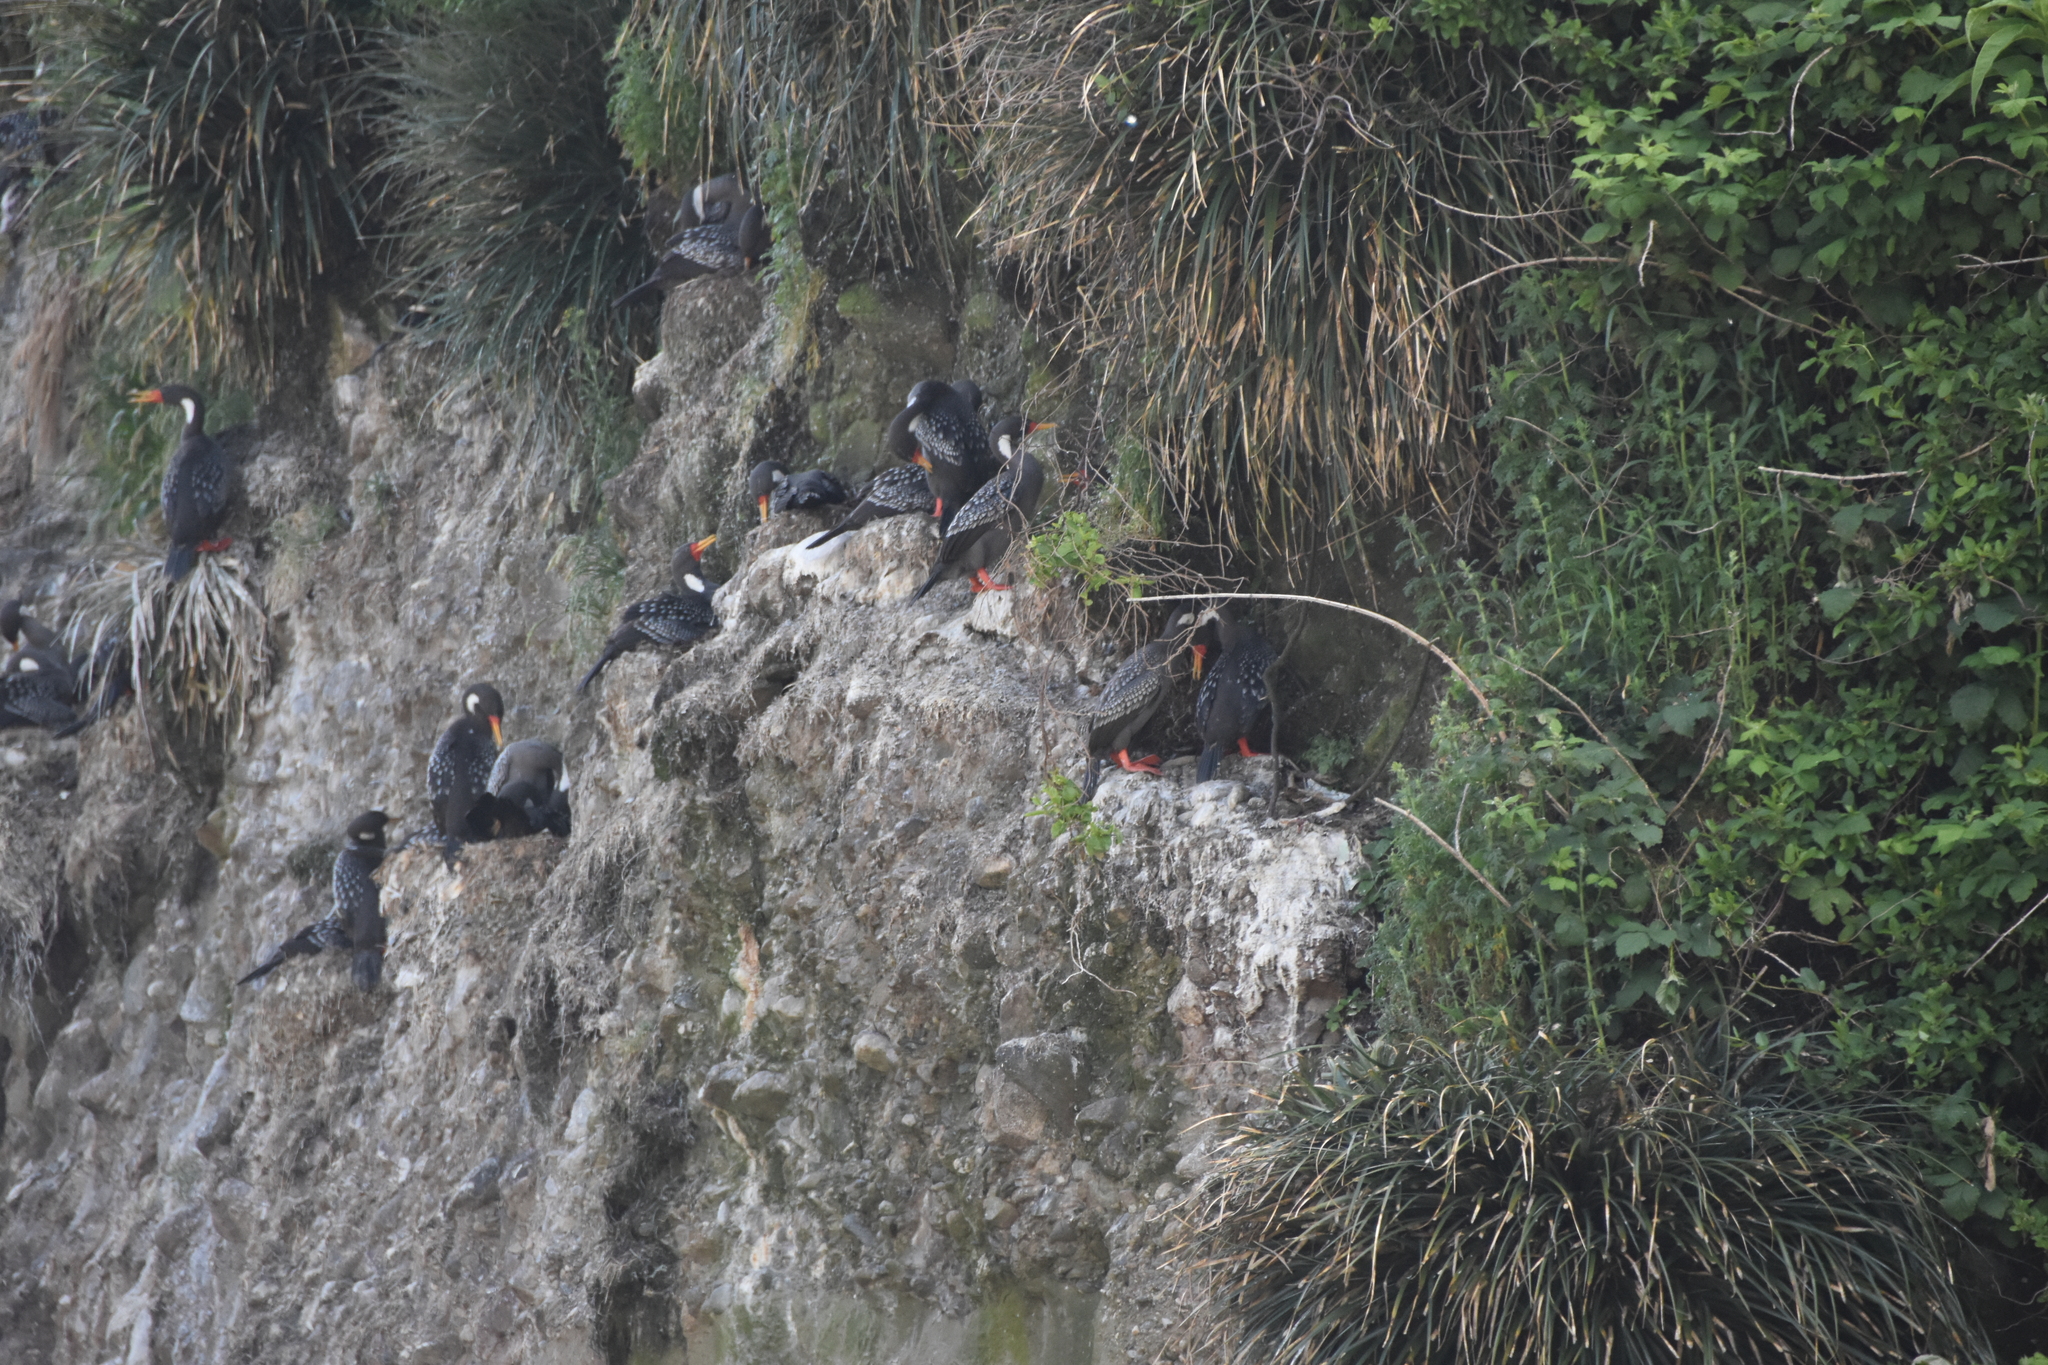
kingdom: Animalia
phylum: Chordata
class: Aves
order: Suliformes
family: Phalacrocoracidae
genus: Phalacrocorax
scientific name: Phalacrocorax gaimardi
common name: Red-legged cormorant
